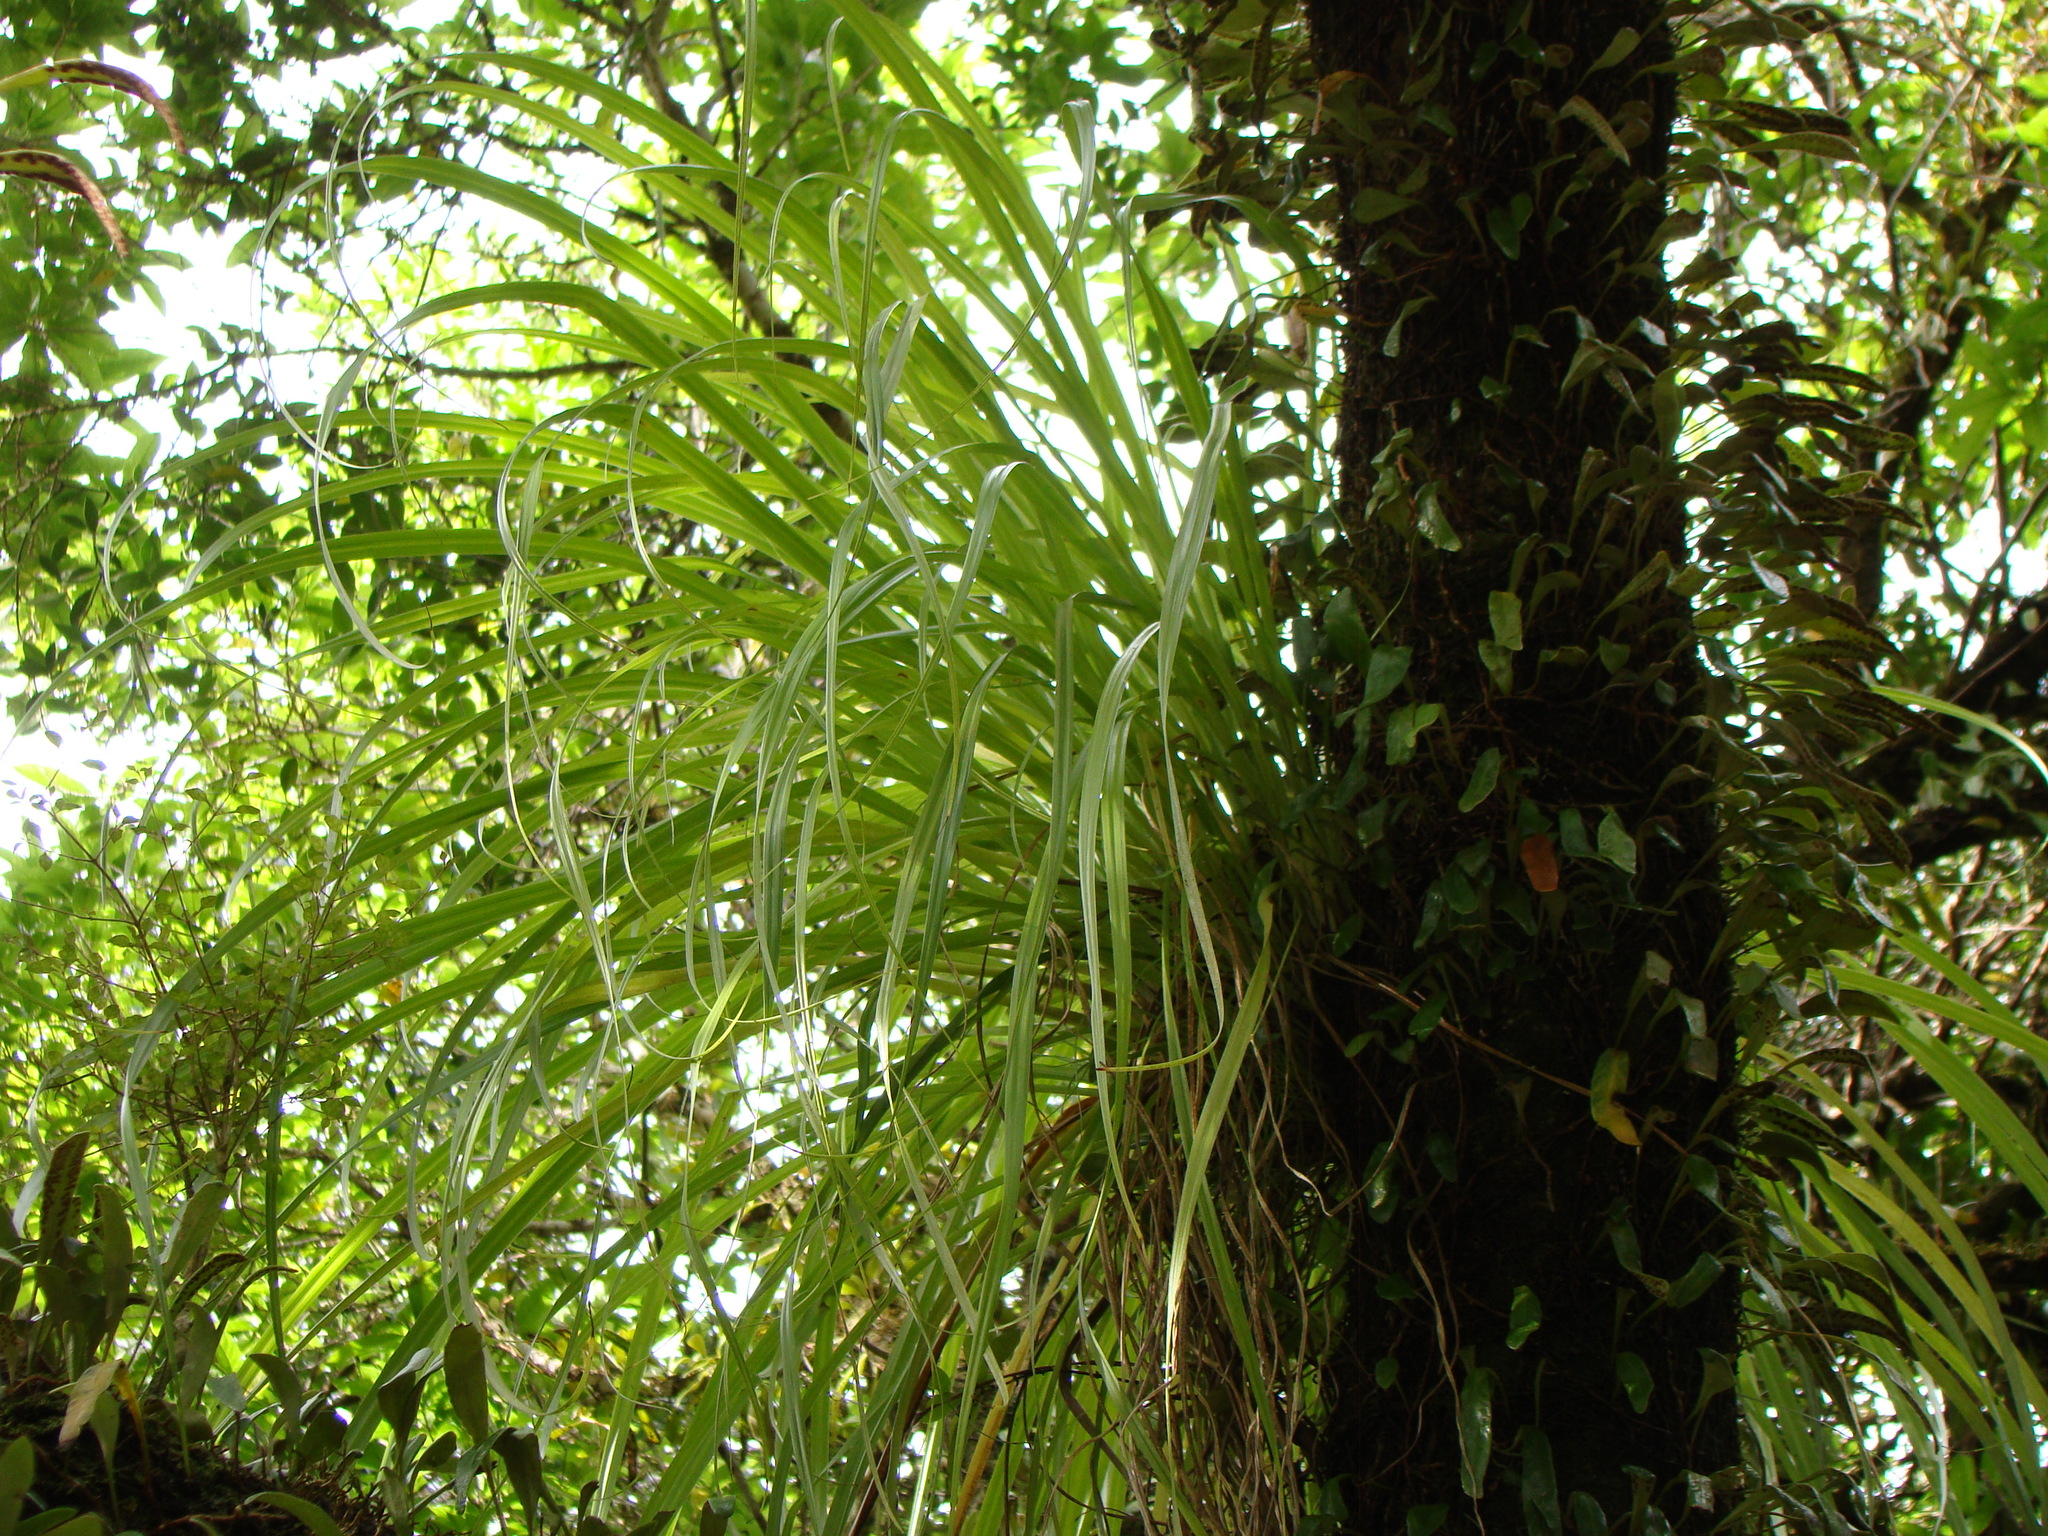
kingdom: Plantae
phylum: Tracheophyta
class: Liliopsida
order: Asparagales
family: Asteliaceae
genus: Astelia
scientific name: Astelia solandri
